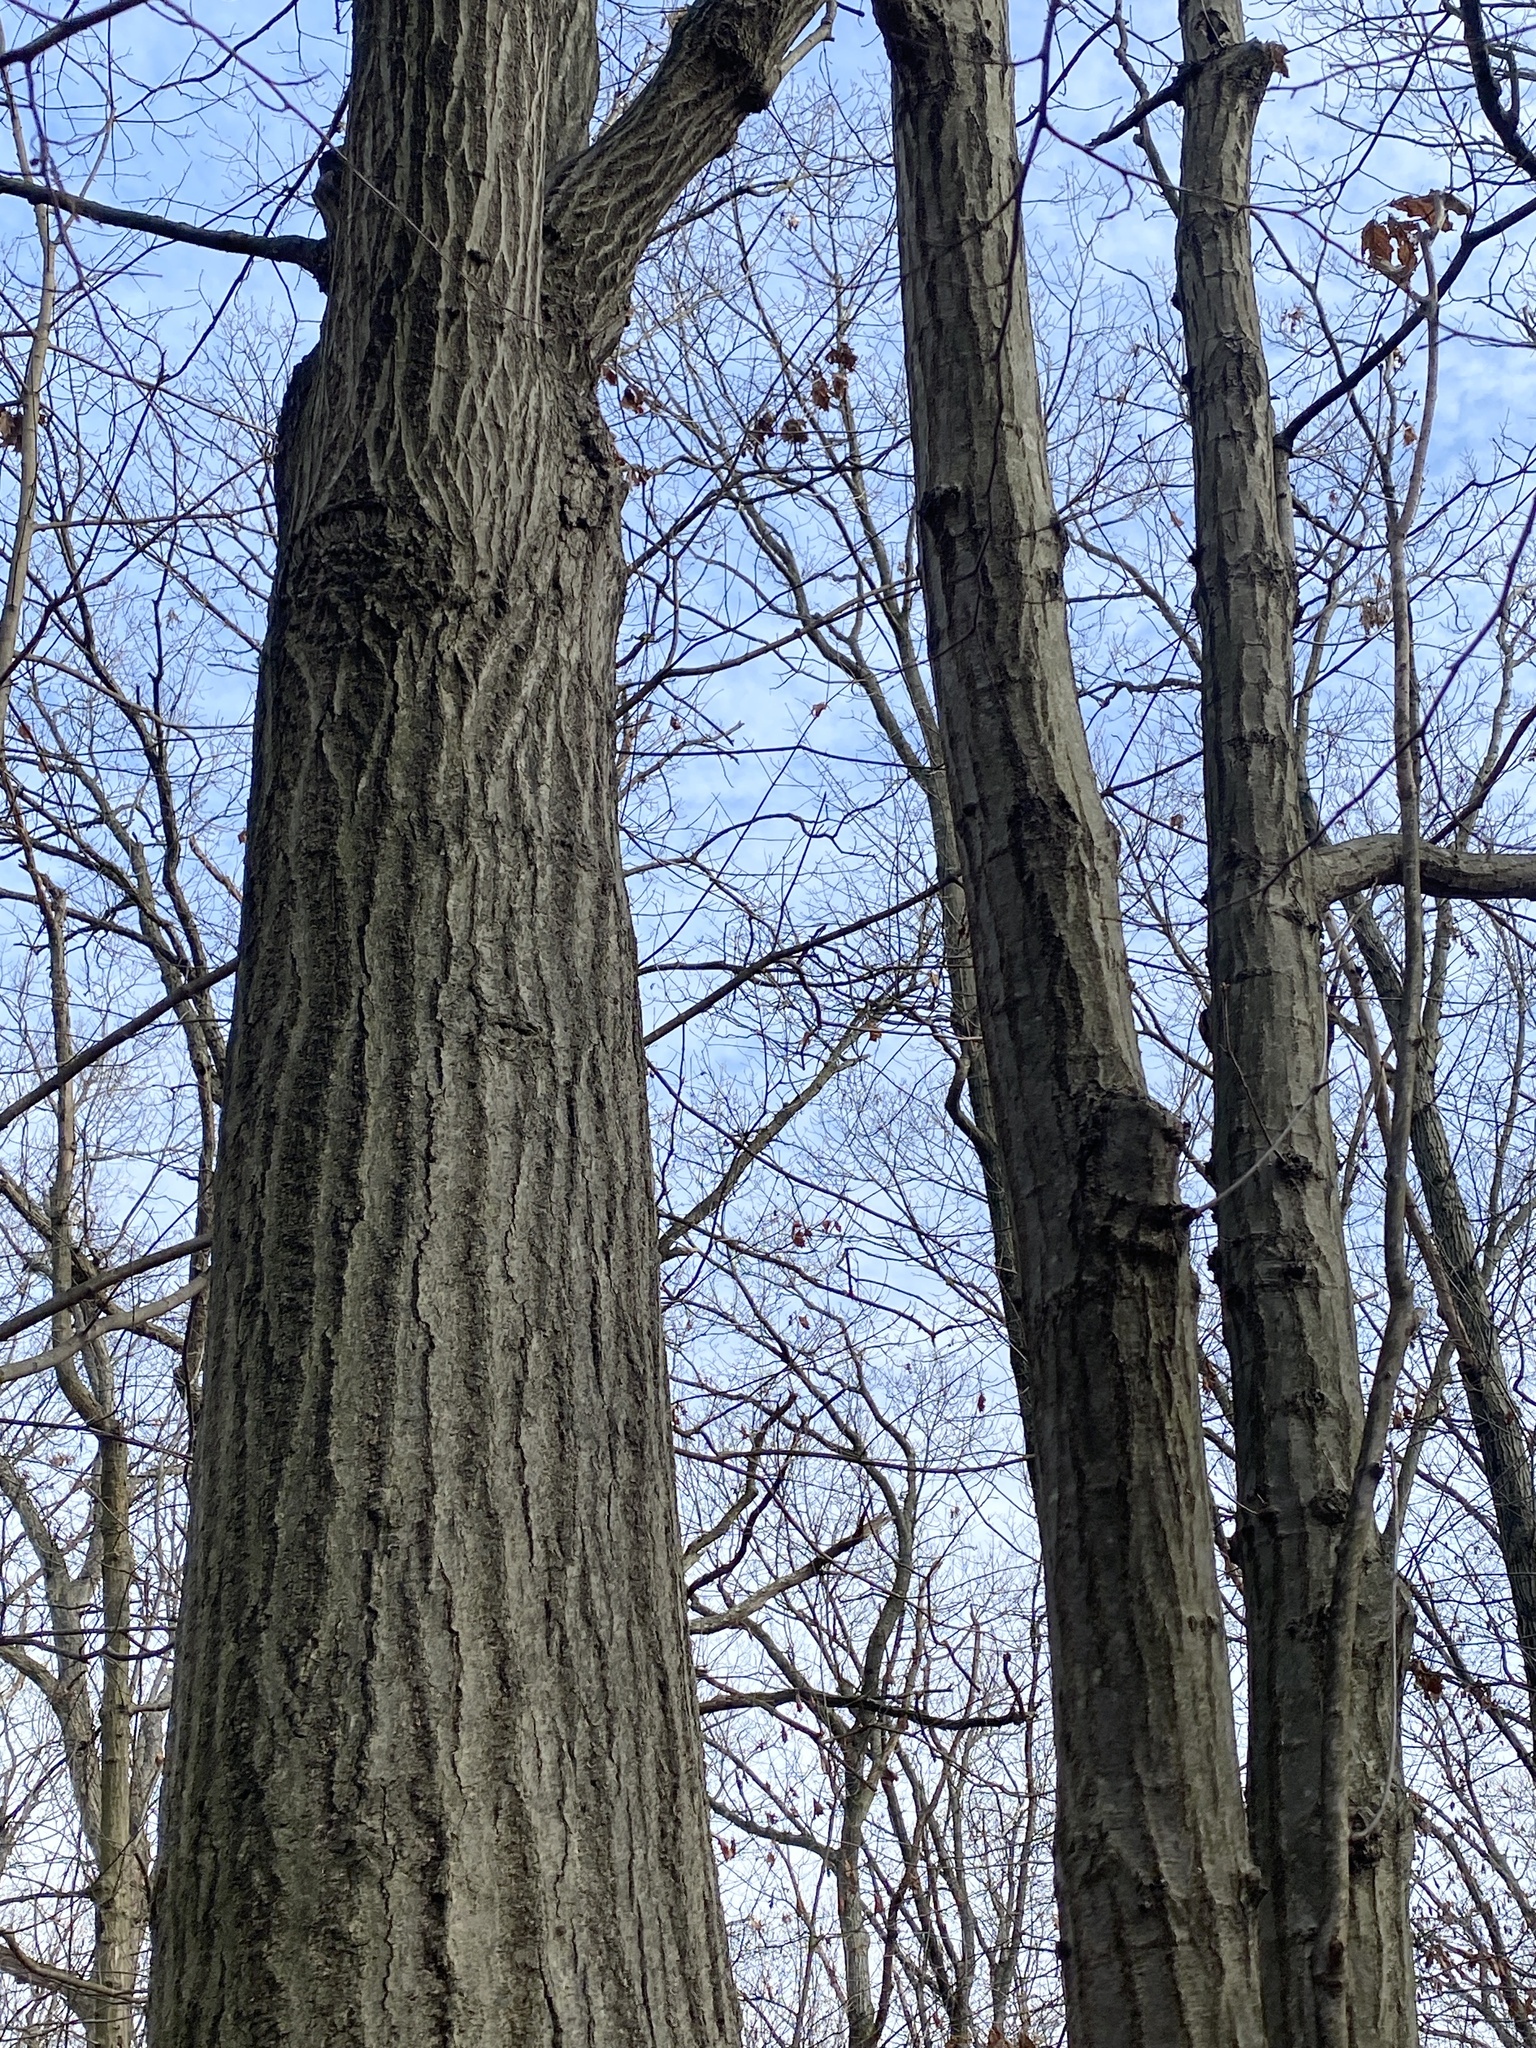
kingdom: Plantae
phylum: Tracheophyta
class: Magnoliopsida
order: Fagales
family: Fagaceae
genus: Quercus
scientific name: Quercus rubra
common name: Red oak
